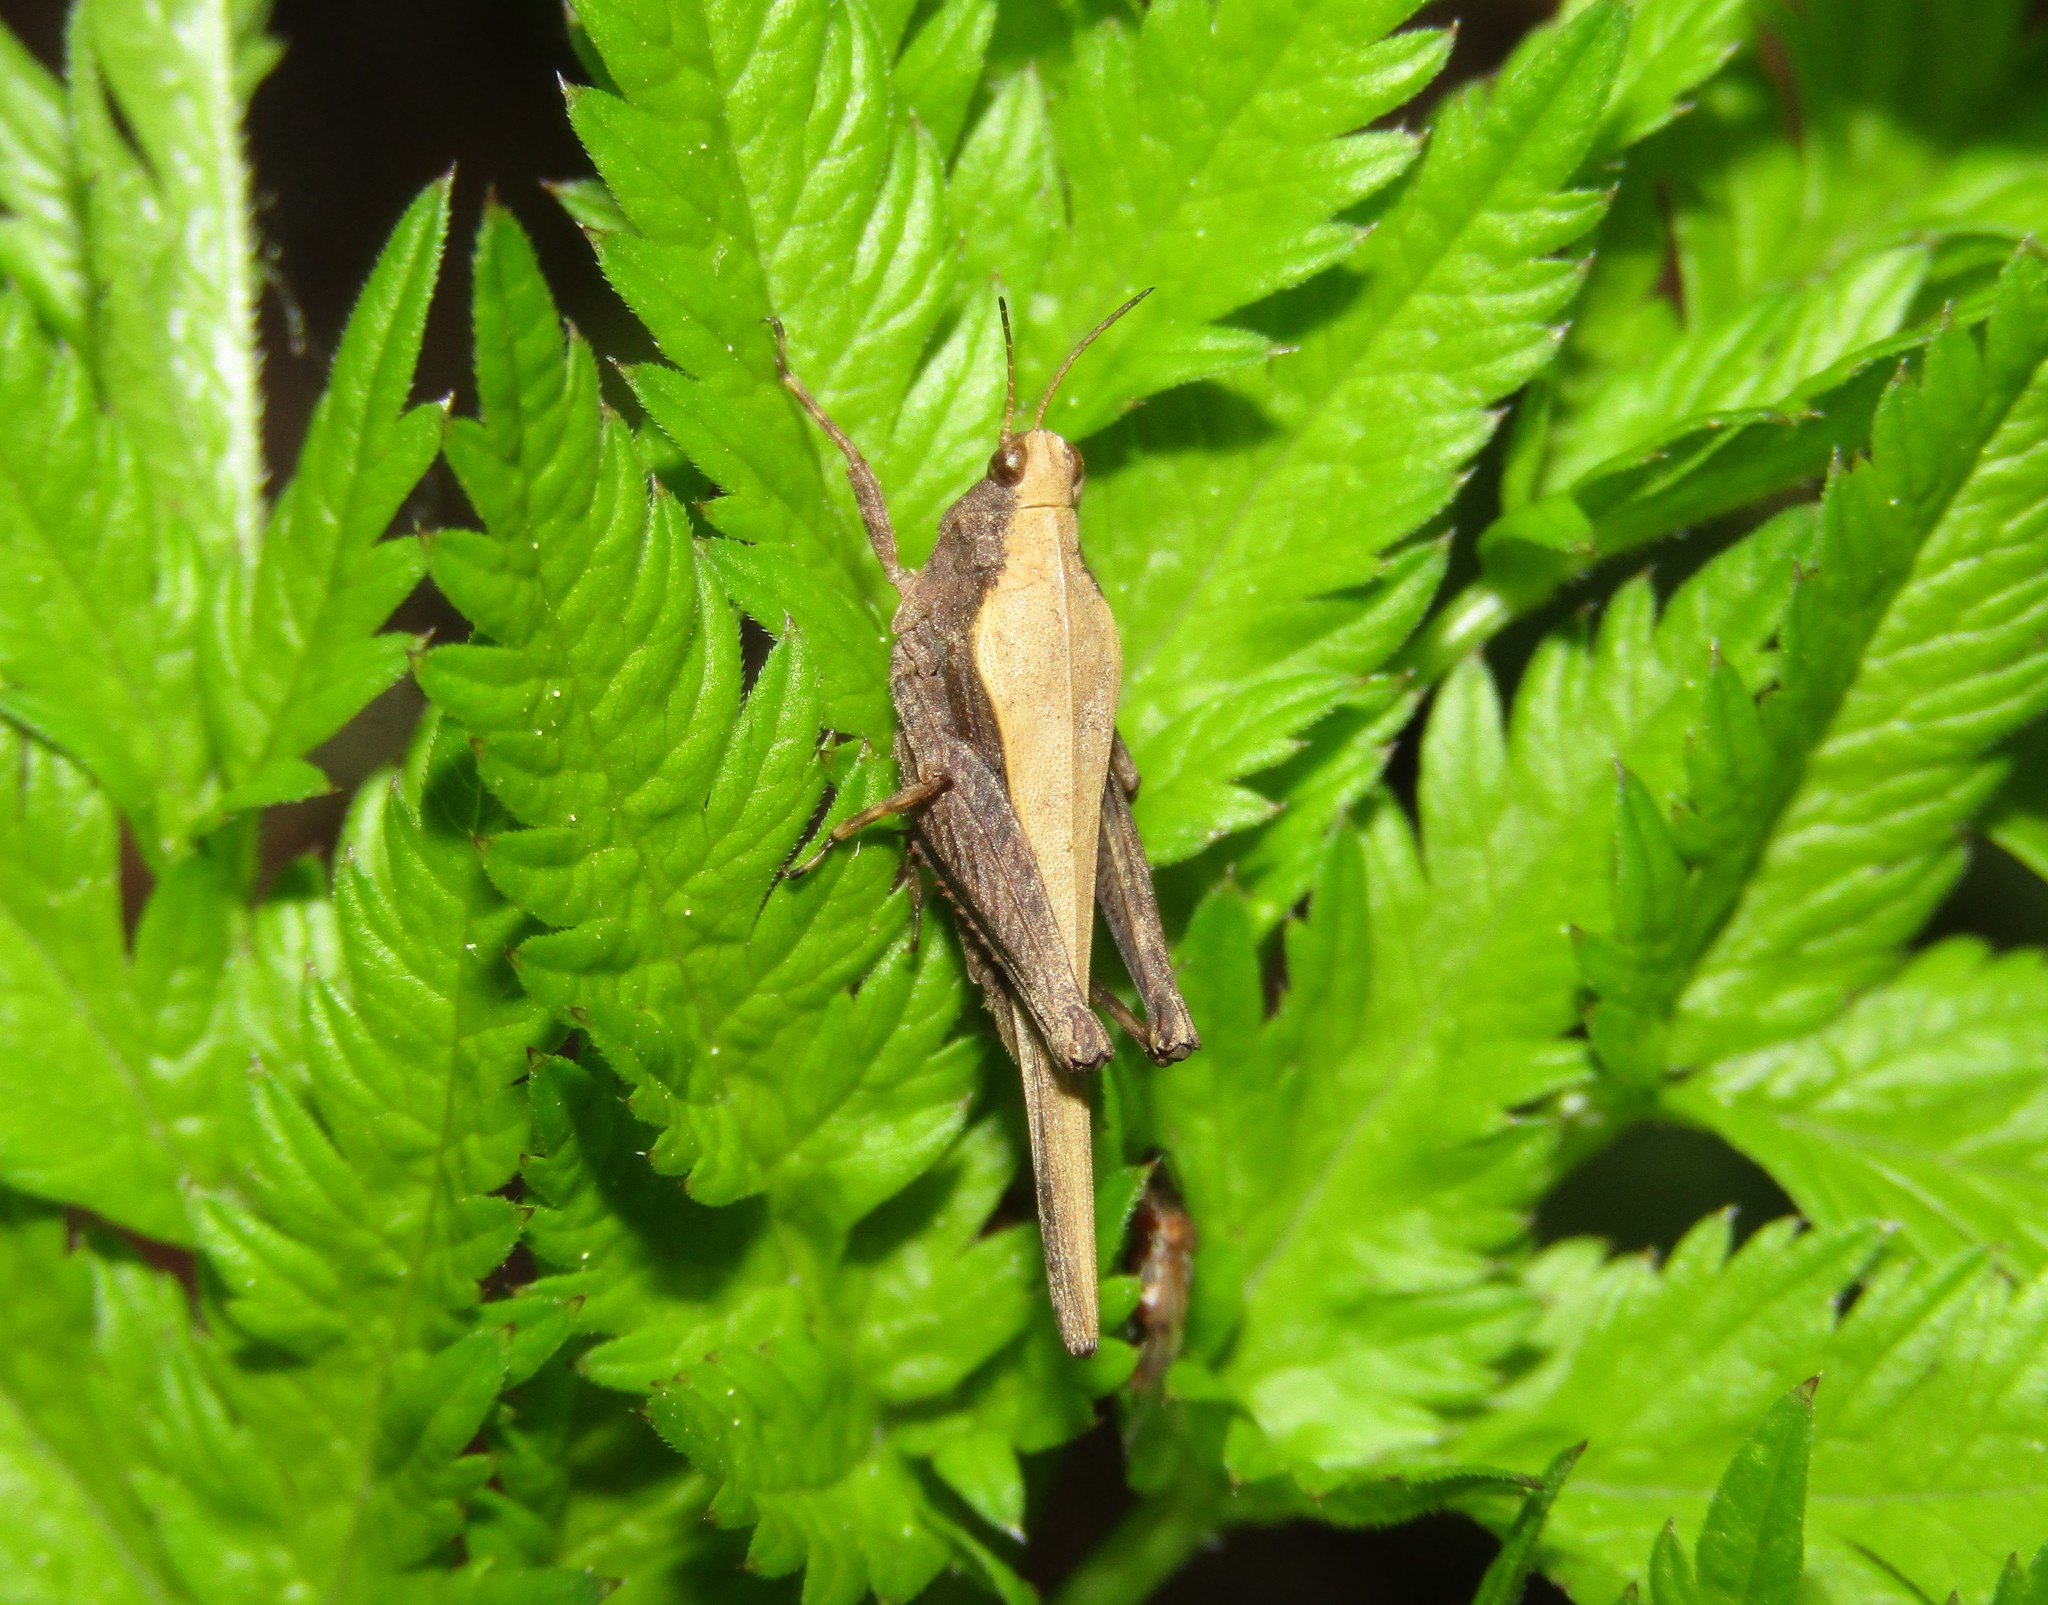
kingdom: Animalia
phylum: Arthropoda
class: Insecta
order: Orthoptera
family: Tetrigidae
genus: Tetrix
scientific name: Tetrix subulata
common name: Slender ground-hopper
